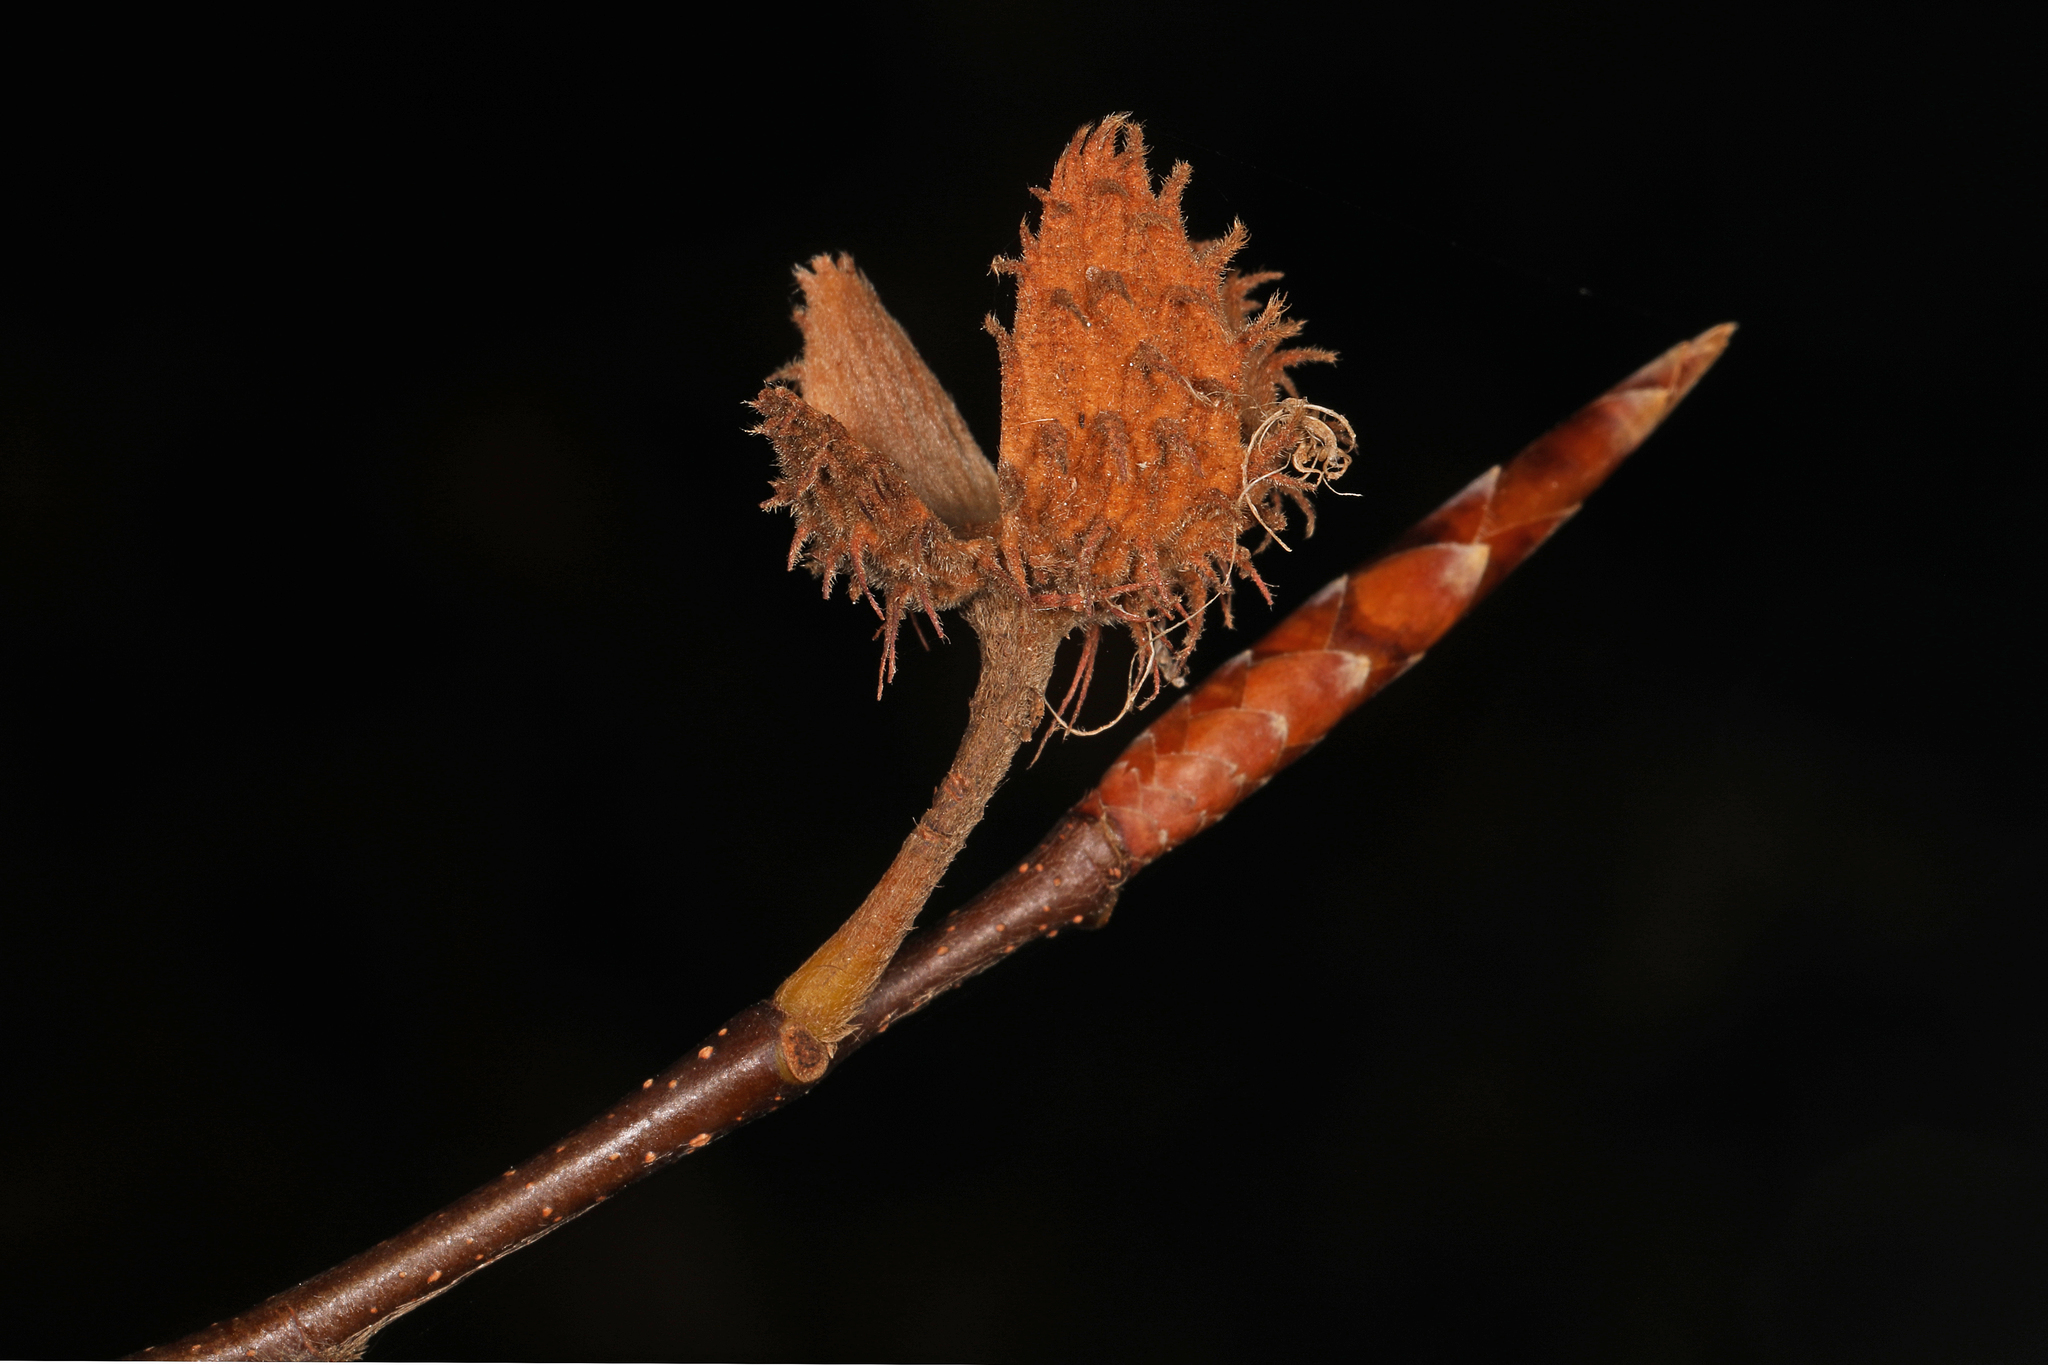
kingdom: Plantae
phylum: Tracheophyta
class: Magnoliopsida
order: Fagales
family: Fagaceae
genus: Fagus
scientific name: Fagus grandifolia
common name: American beech
